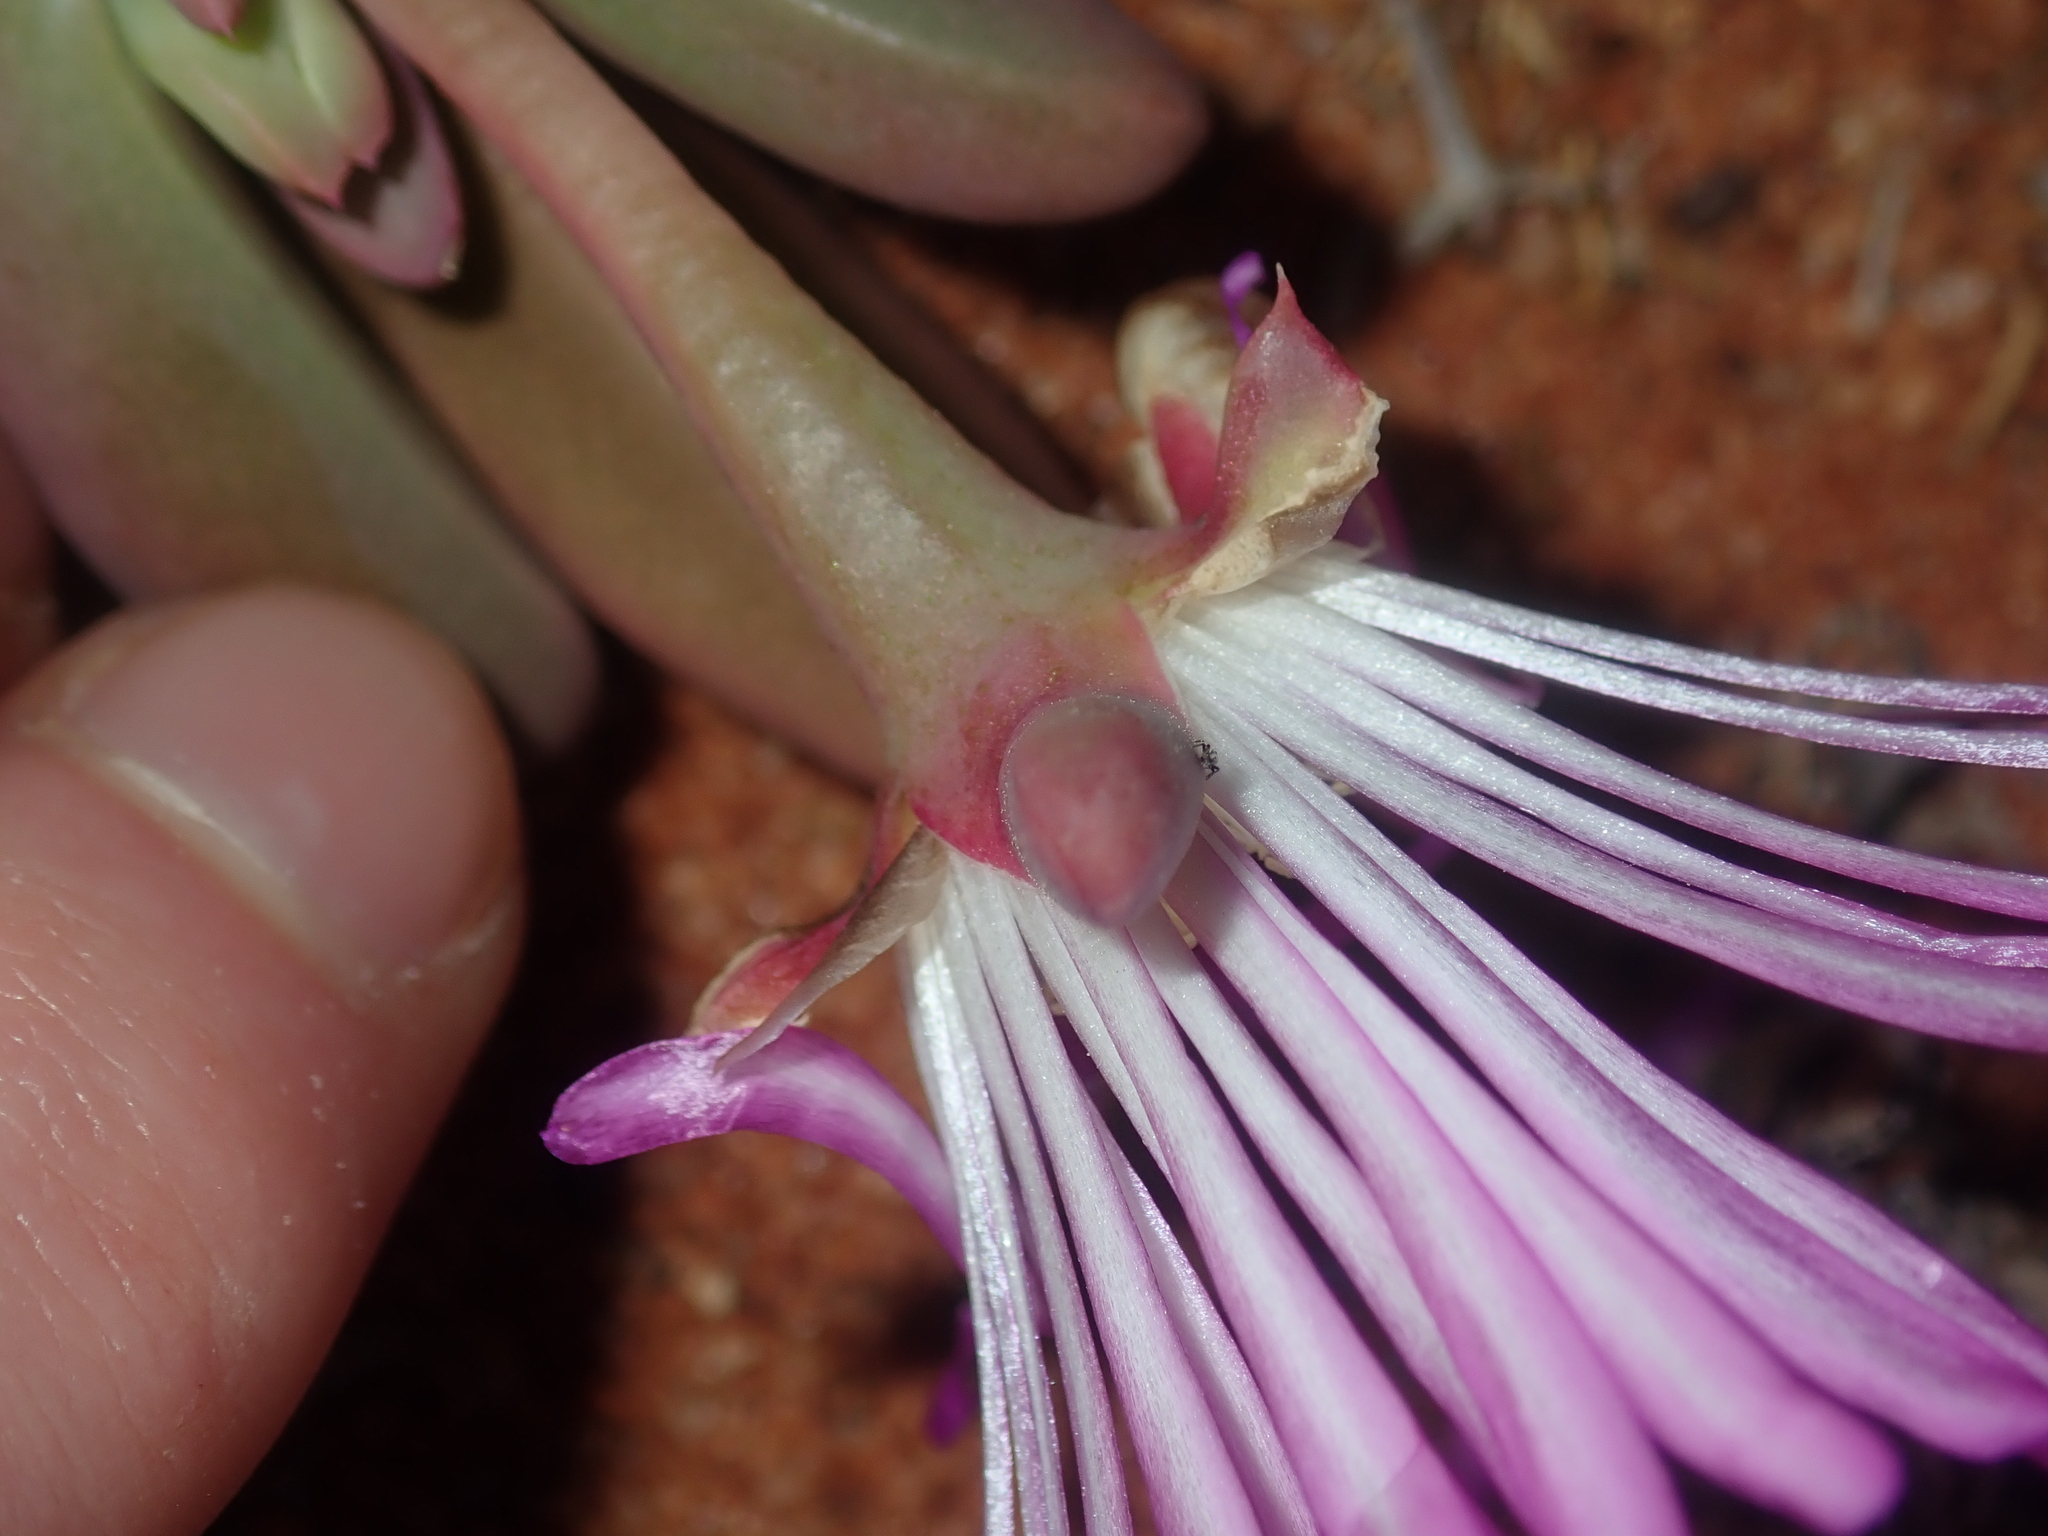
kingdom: Plantae
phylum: Tracheophyta
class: Magnoliopsida
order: Caryophyllales
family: Aizoaceae
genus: Disphyma
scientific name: Disphyma clavellatum
